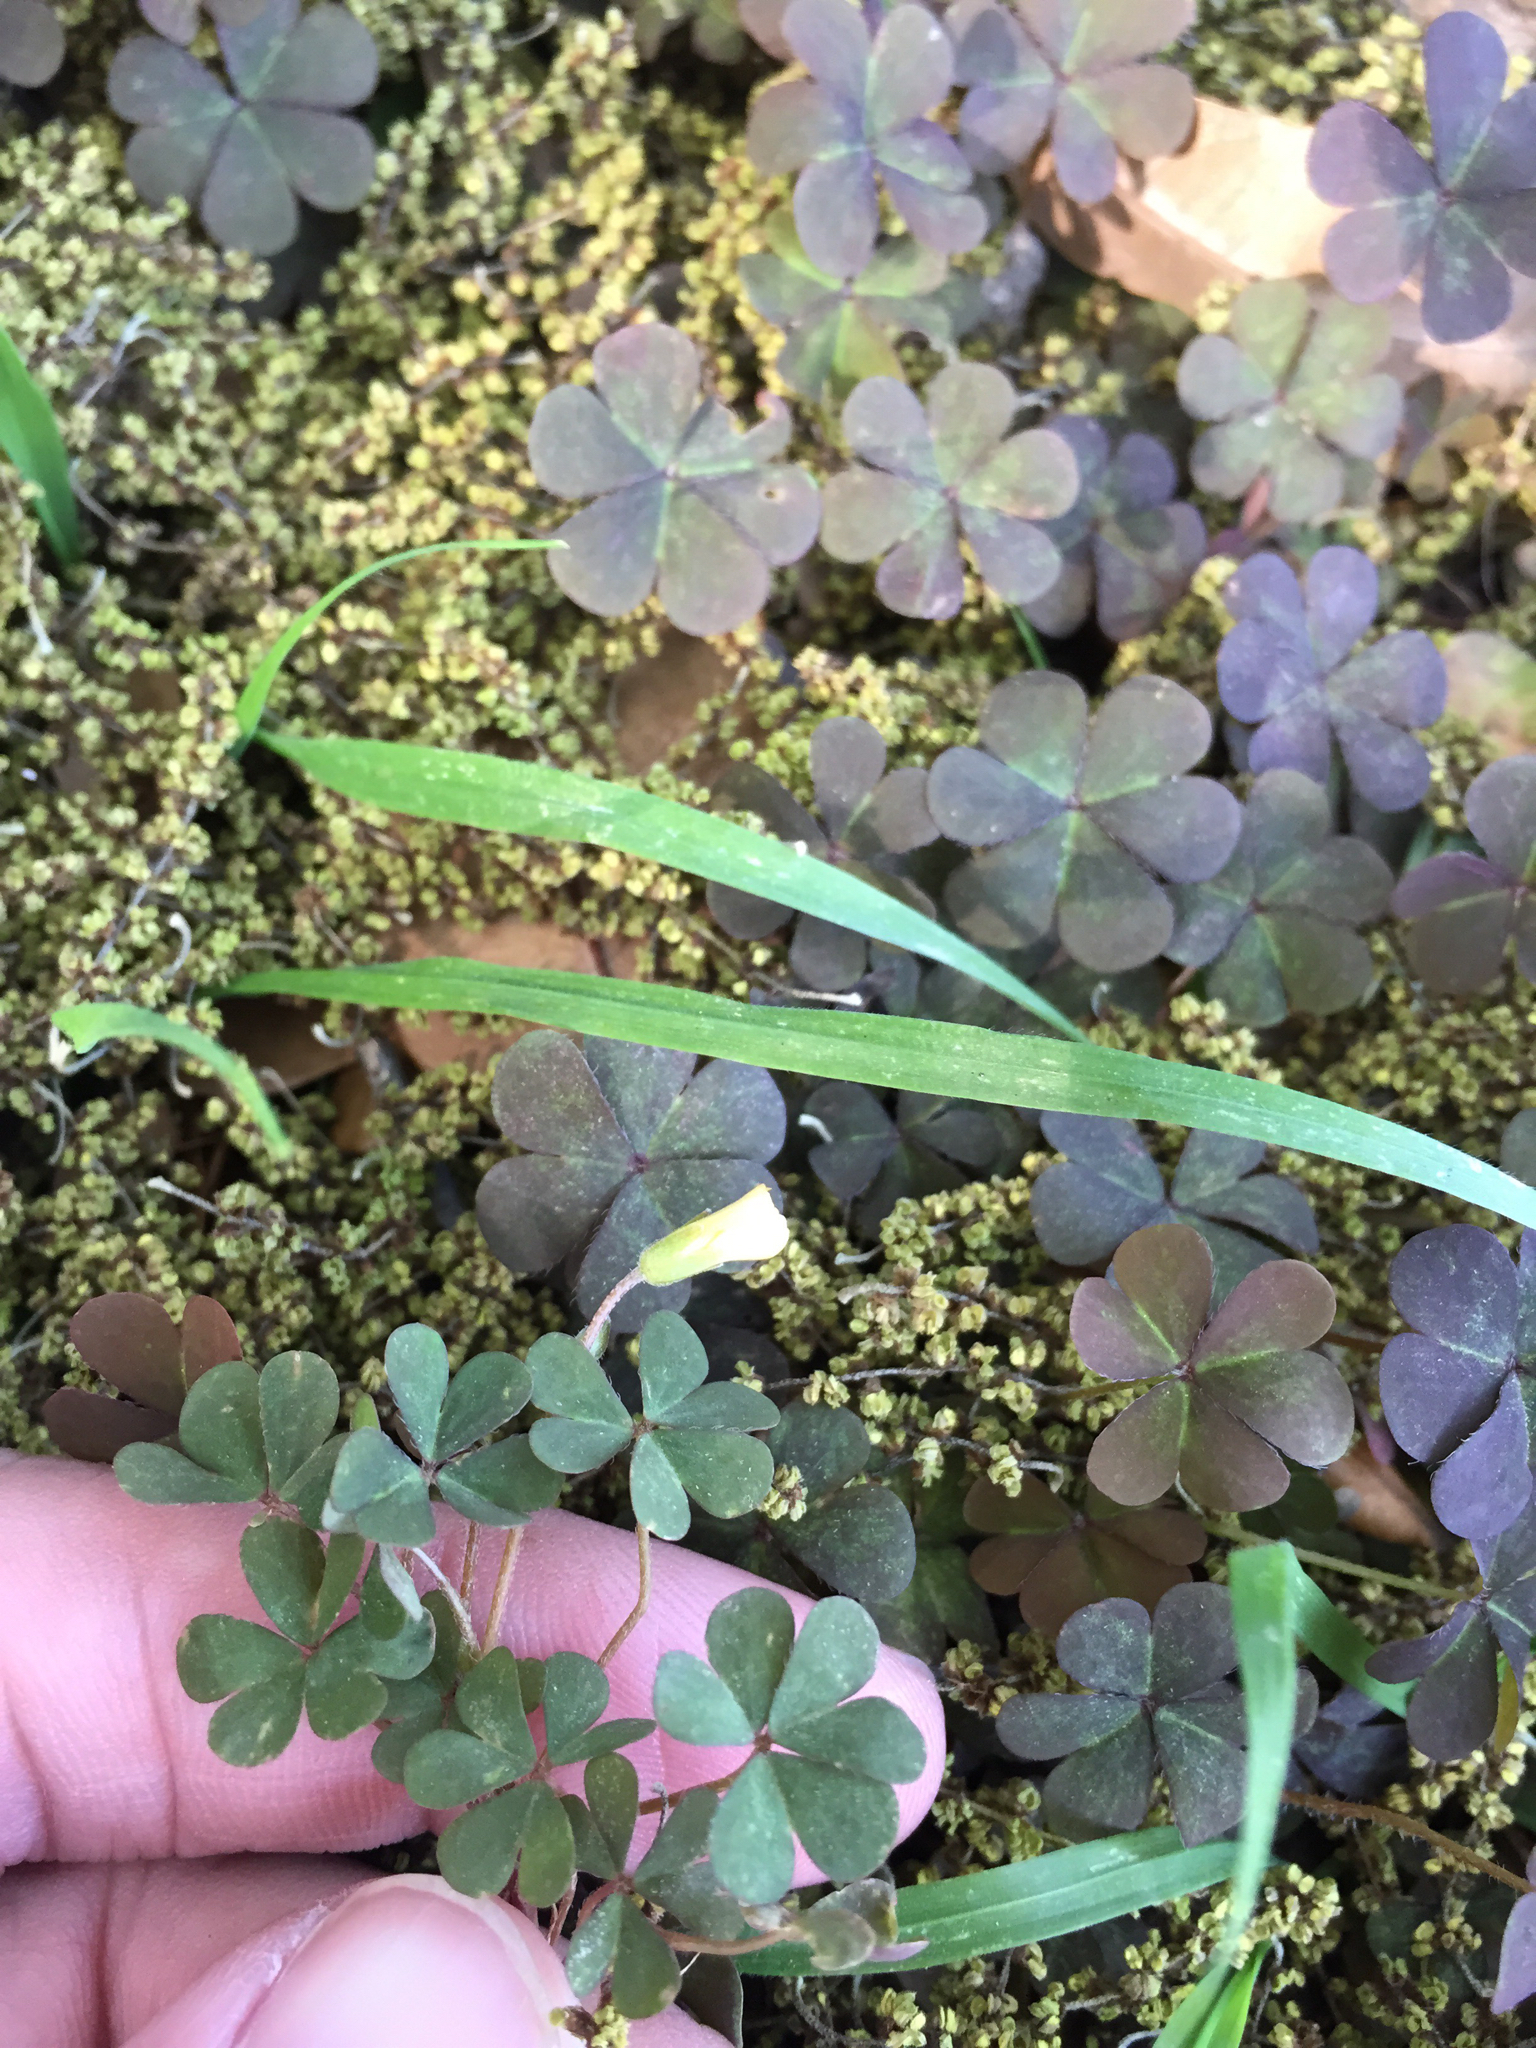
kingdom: Plantae
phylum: Tracheophyta
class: Magnoliopsida
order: Oxalidales
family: Oxalidaceae
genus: Oxalis
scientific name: Oxalis corniculata
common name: Procumbent yellow-sorrel
